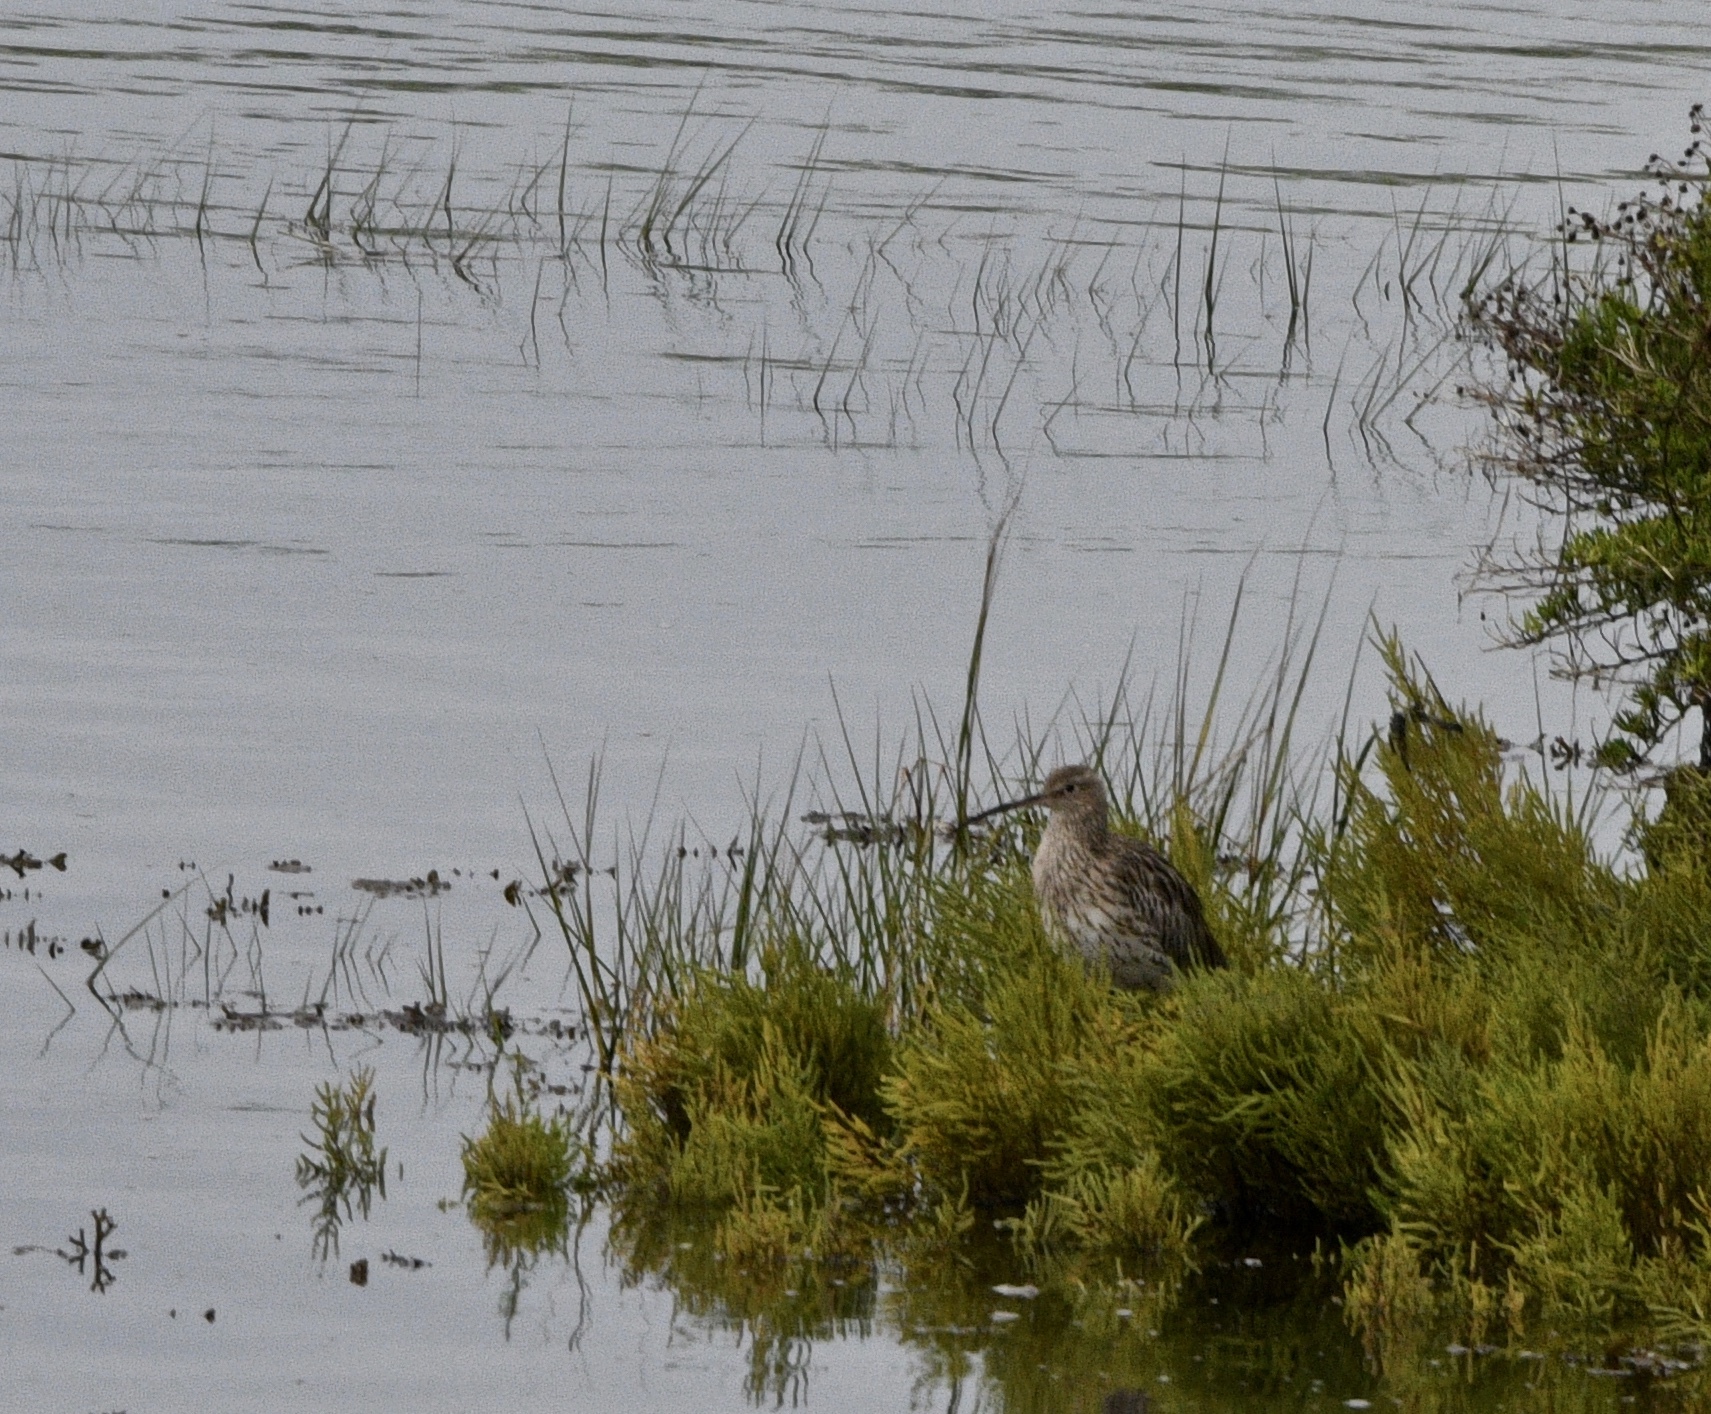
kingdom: Animalia
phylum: Chordata
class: Aves
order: Charadriiformes
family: Scolopacidae
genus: Numenius
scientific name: Numenius arquata
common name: Eurasian curlew
